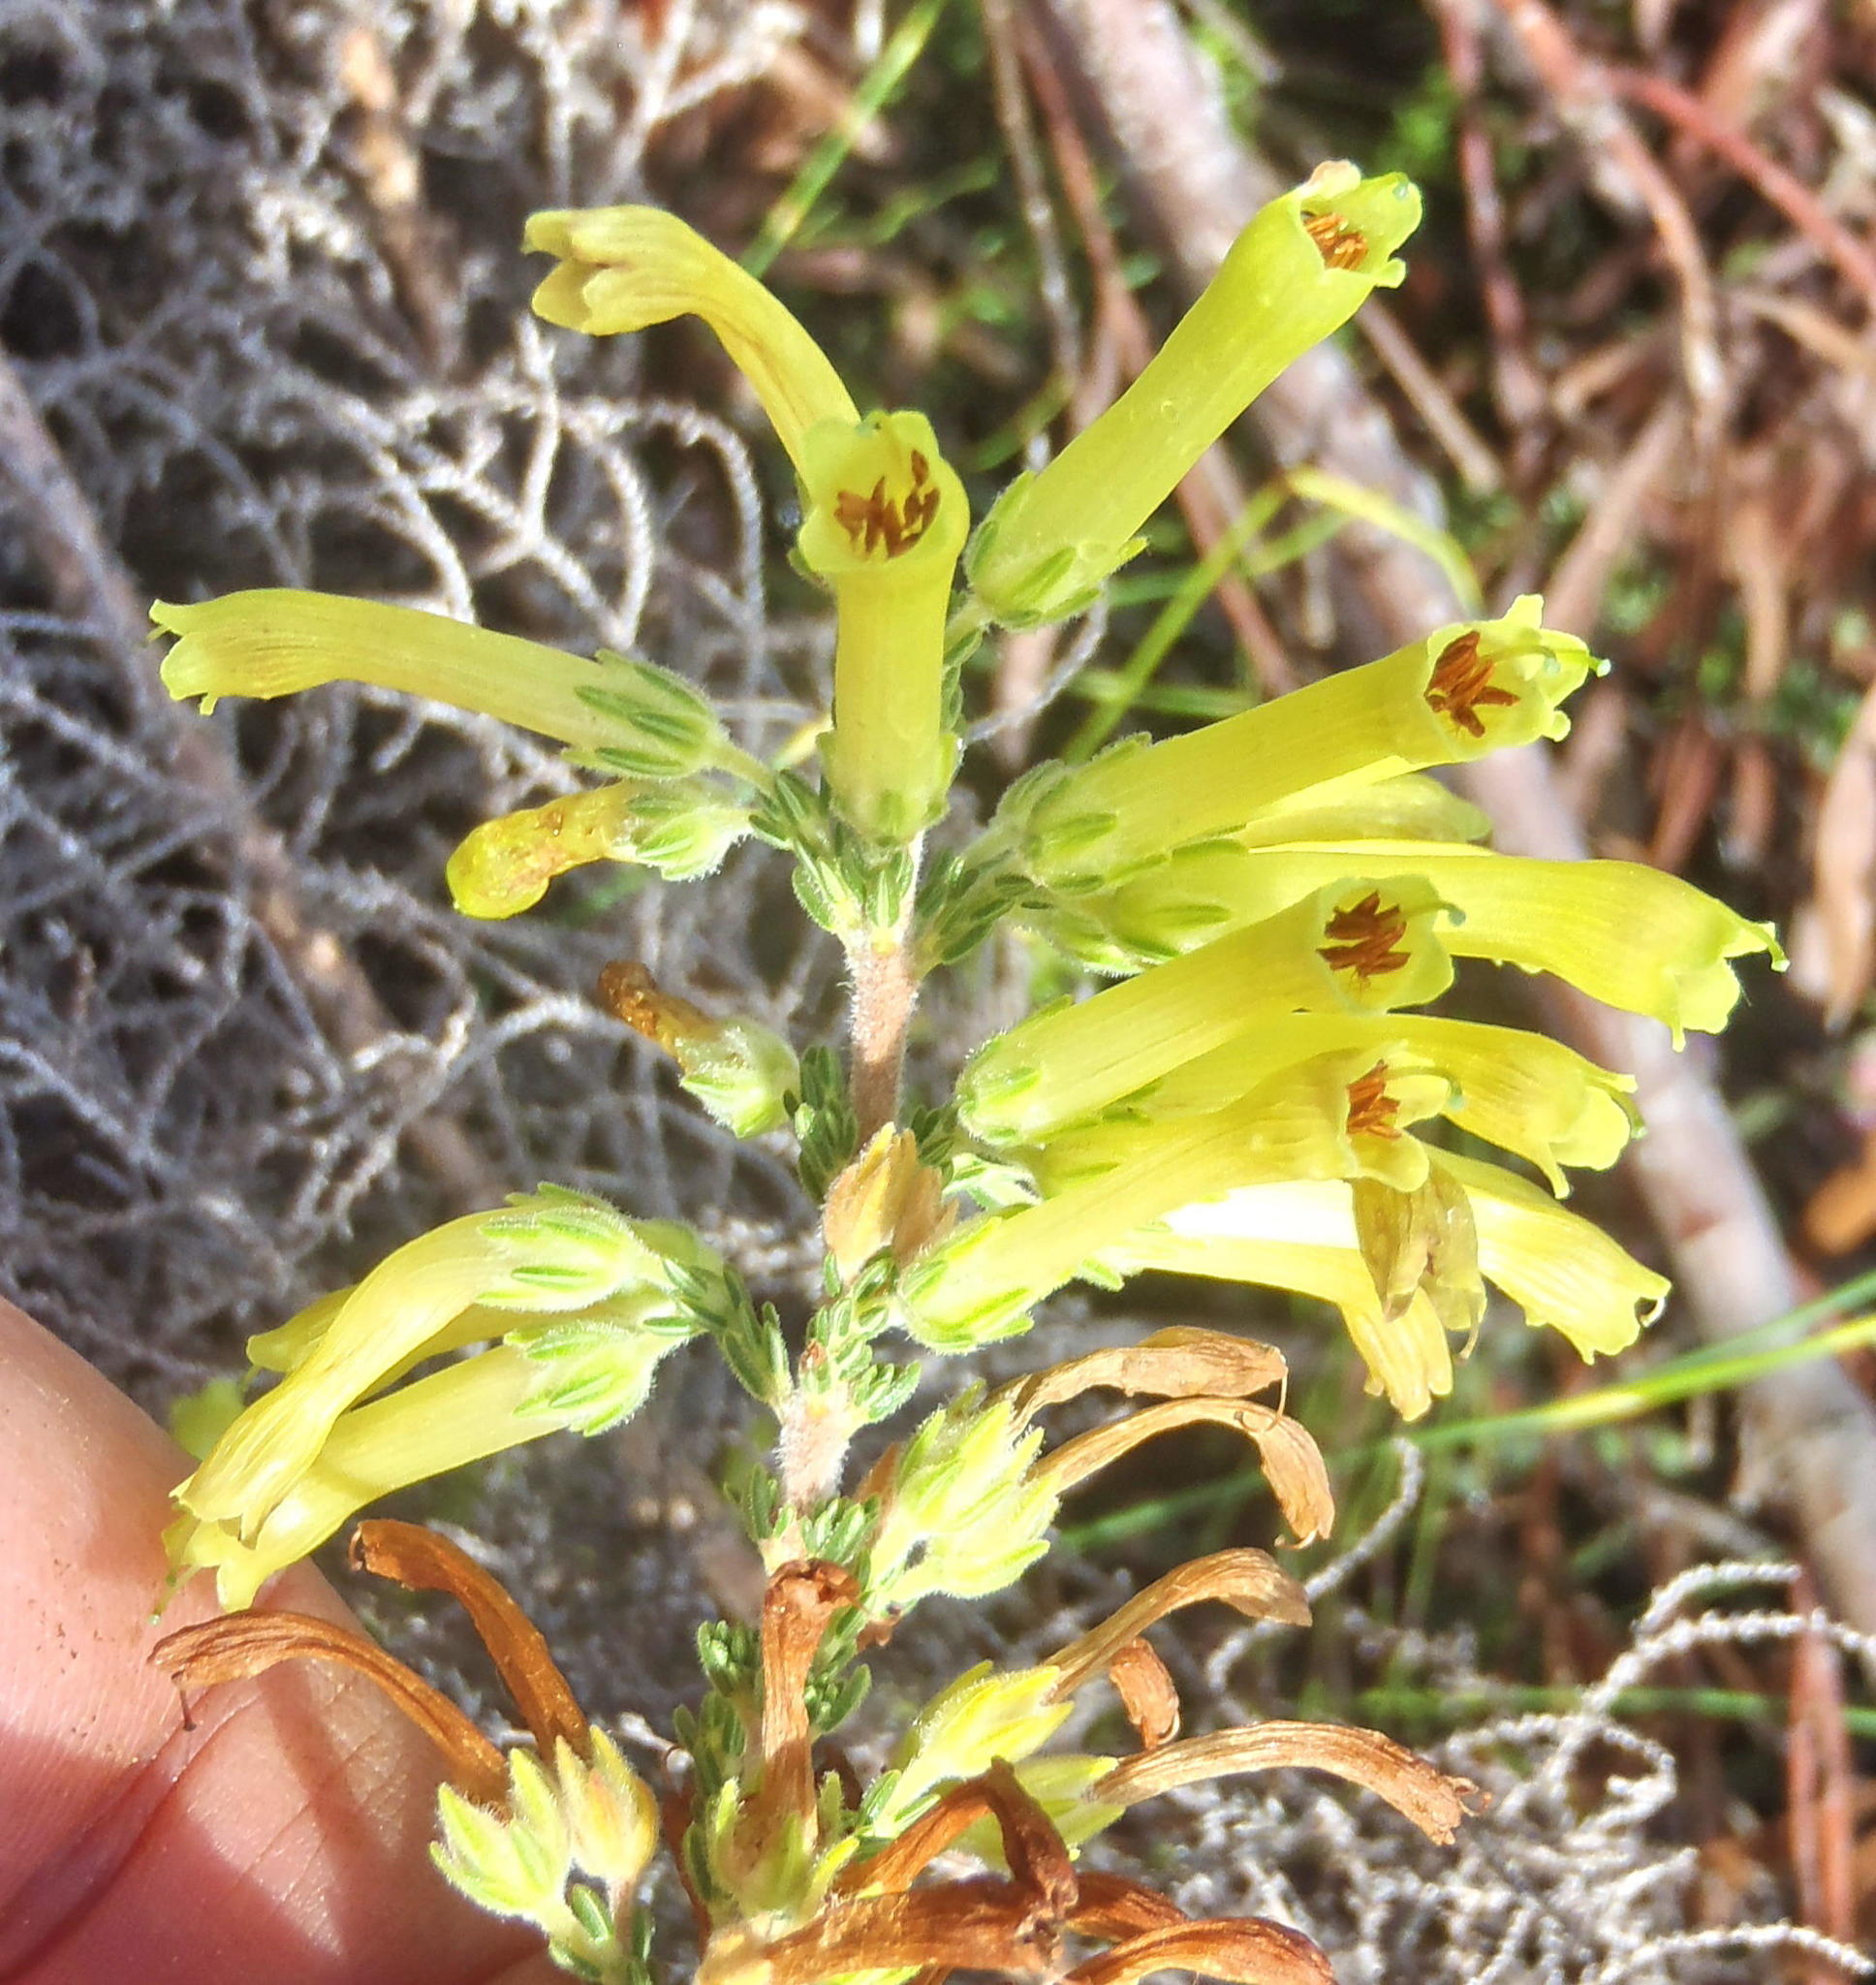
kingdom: Plantae
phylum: Tracheophyta
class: Magnoliopsida
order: Ericales
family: Ericaceae
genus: Erica
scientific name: Erica discolor
